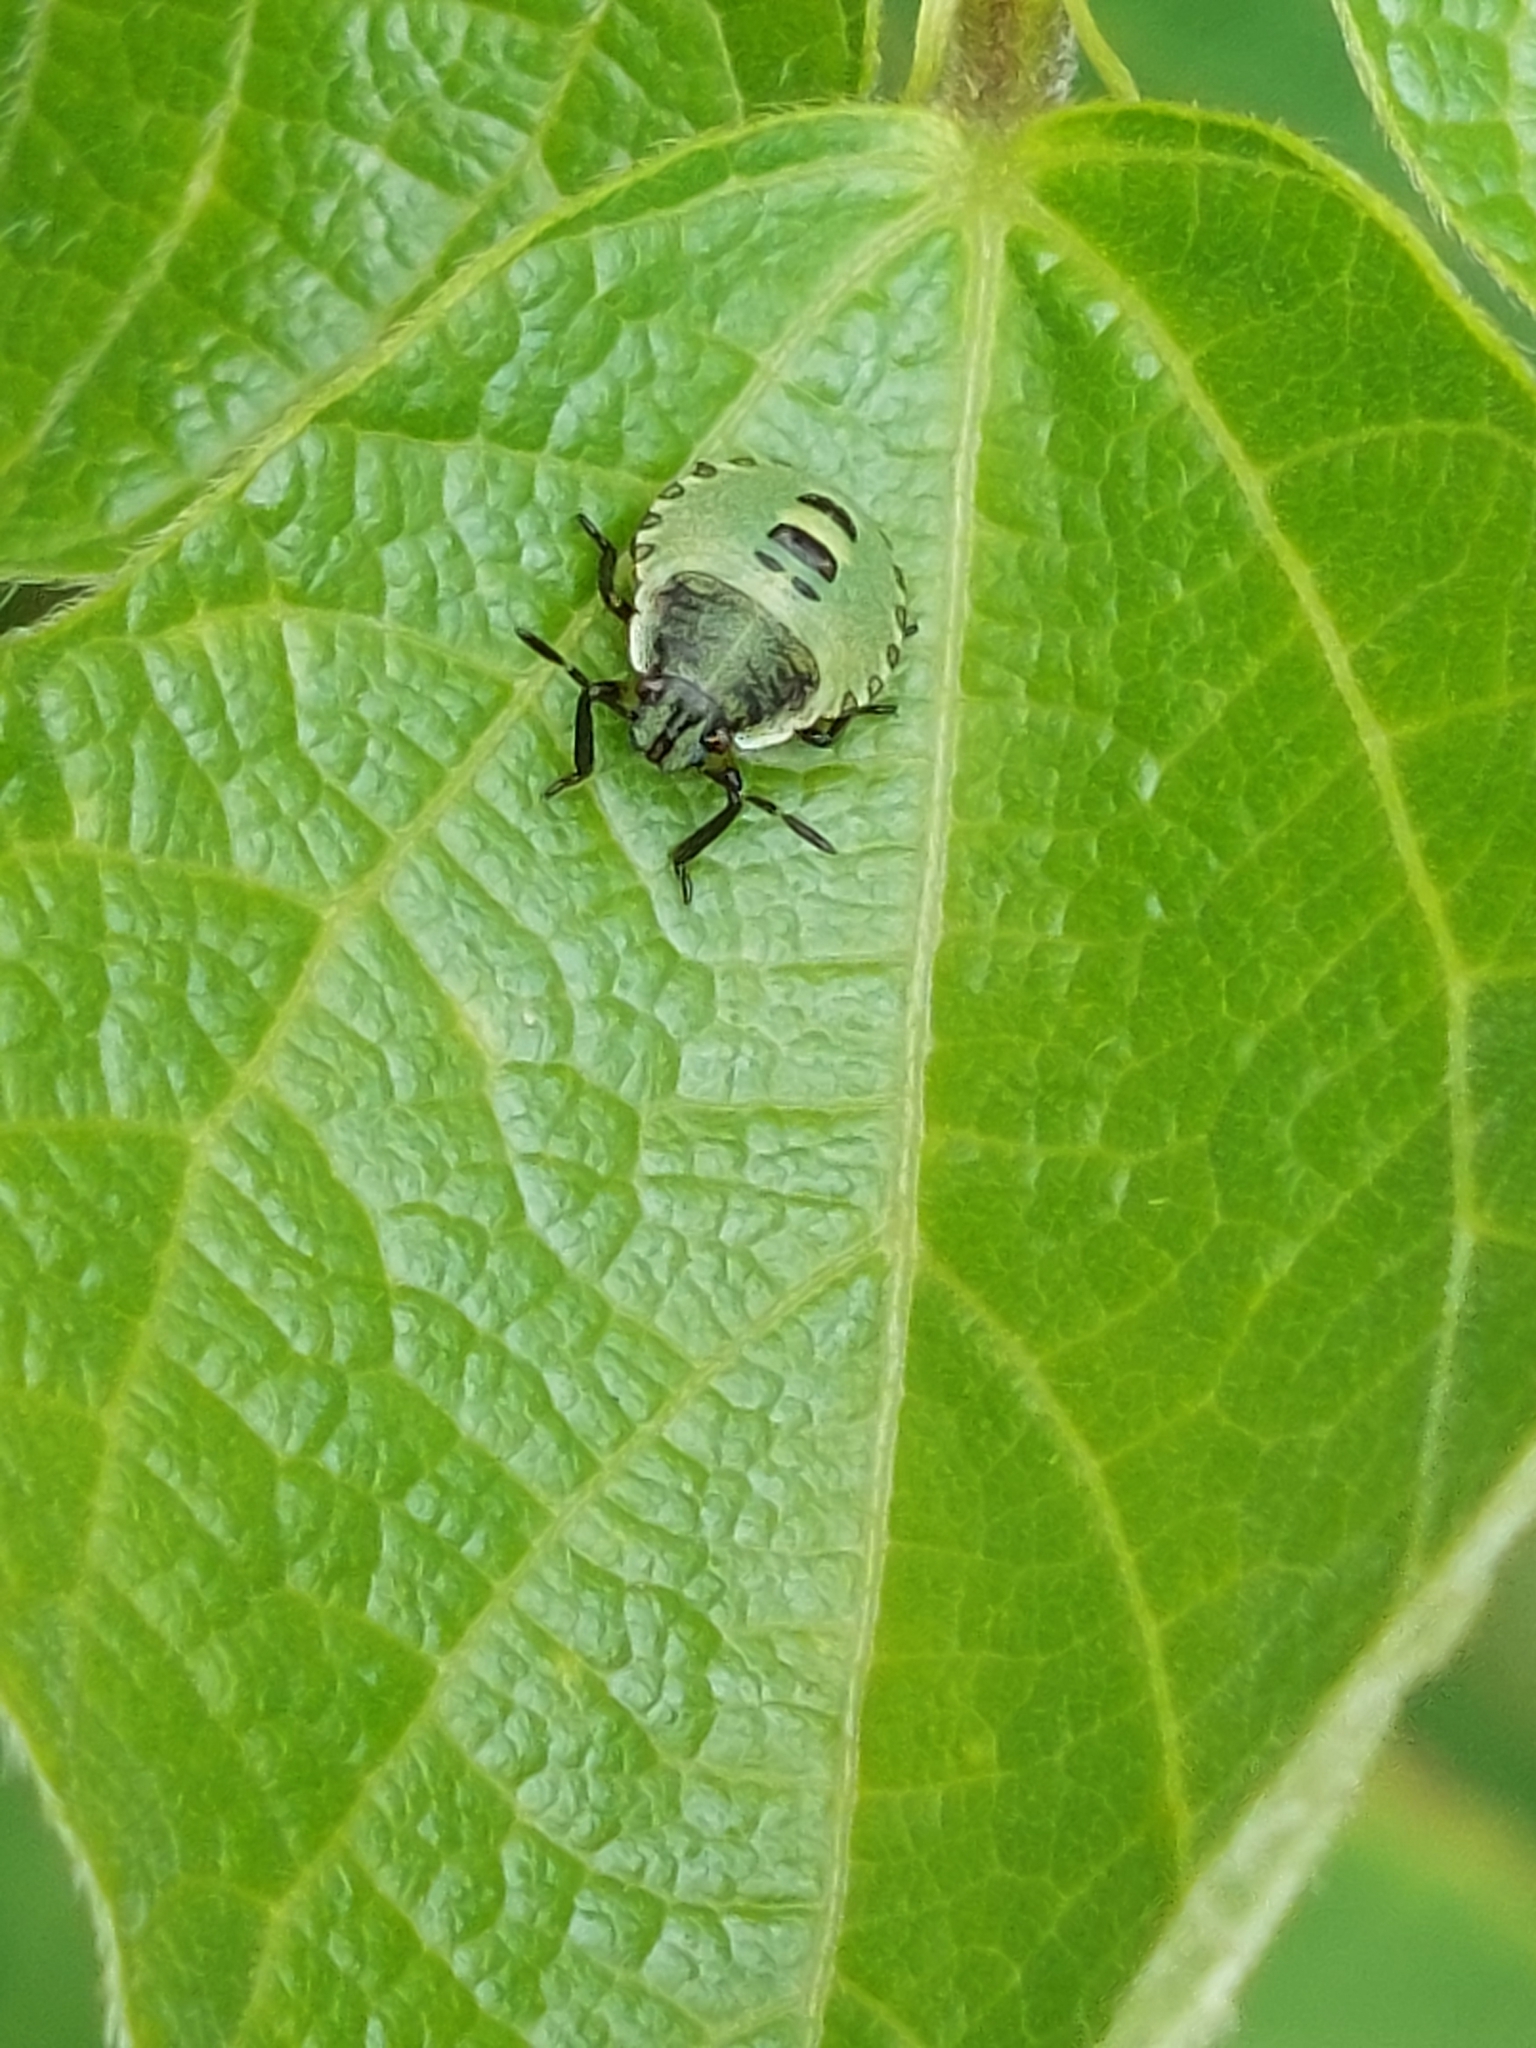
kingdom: Animalia
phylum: Arthropoda
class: Insecta
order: Hemiptera
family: Pentatomidae
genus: Palomena
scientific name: Palomena prasina
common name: Green shieldbug
